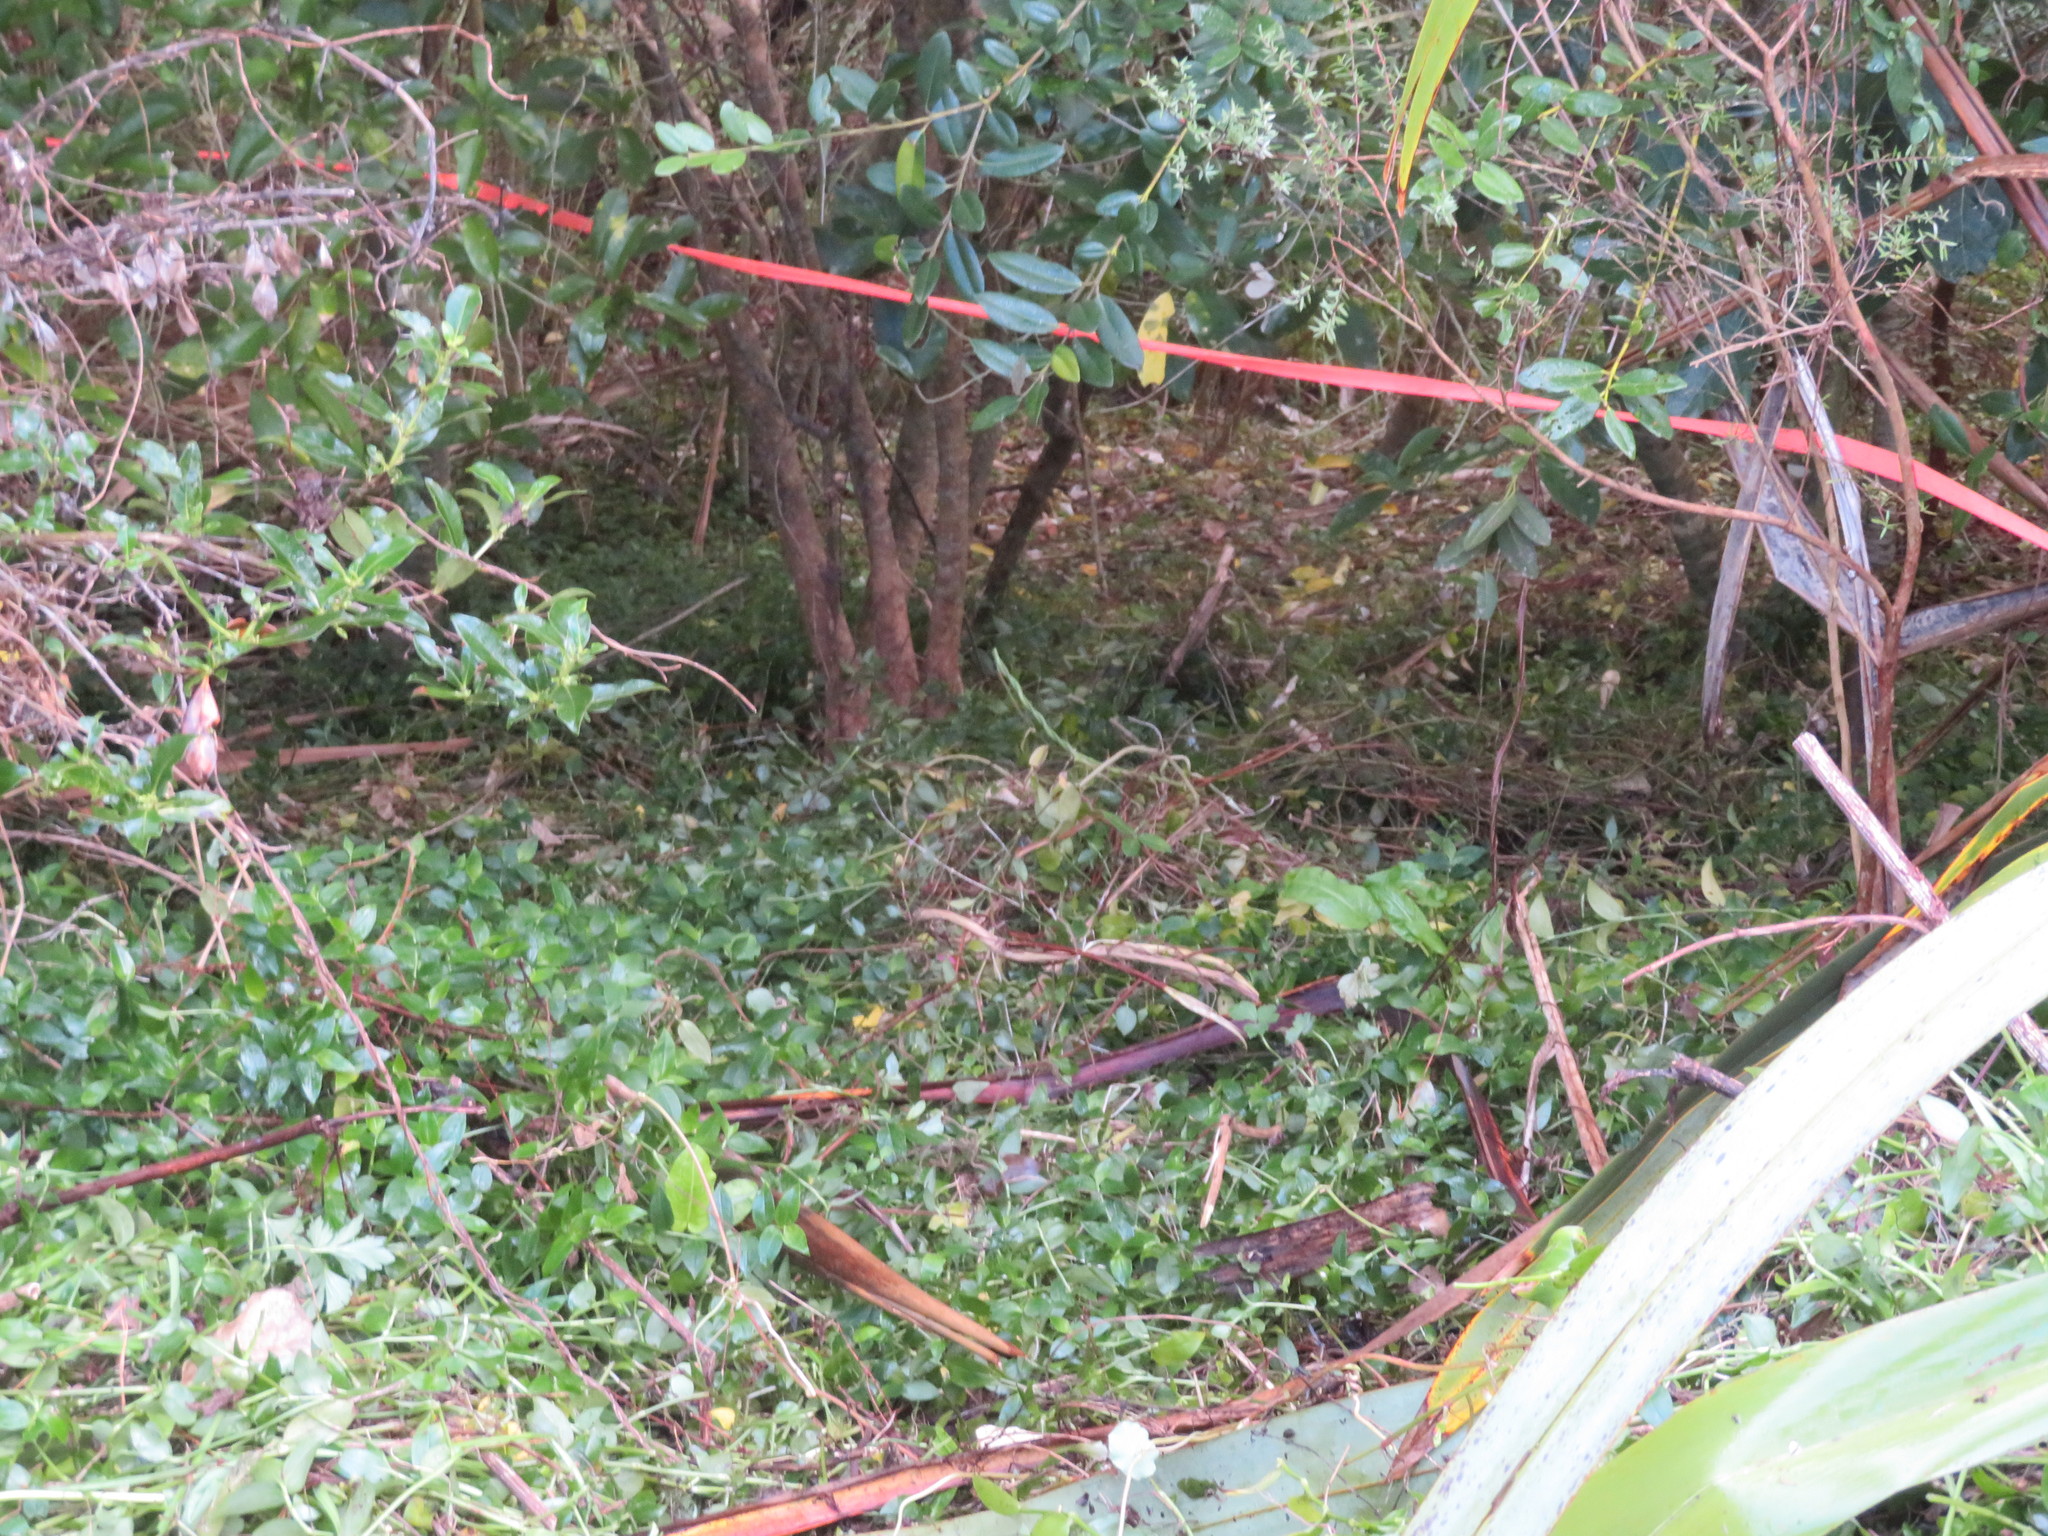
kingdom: Plantae
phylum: Tracheophyta
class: Magnoliopsida
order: Myrtales
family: Myrtaceae
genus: Metrosideros
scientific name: Metrosideros excelsa
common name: New zealand christmastree
